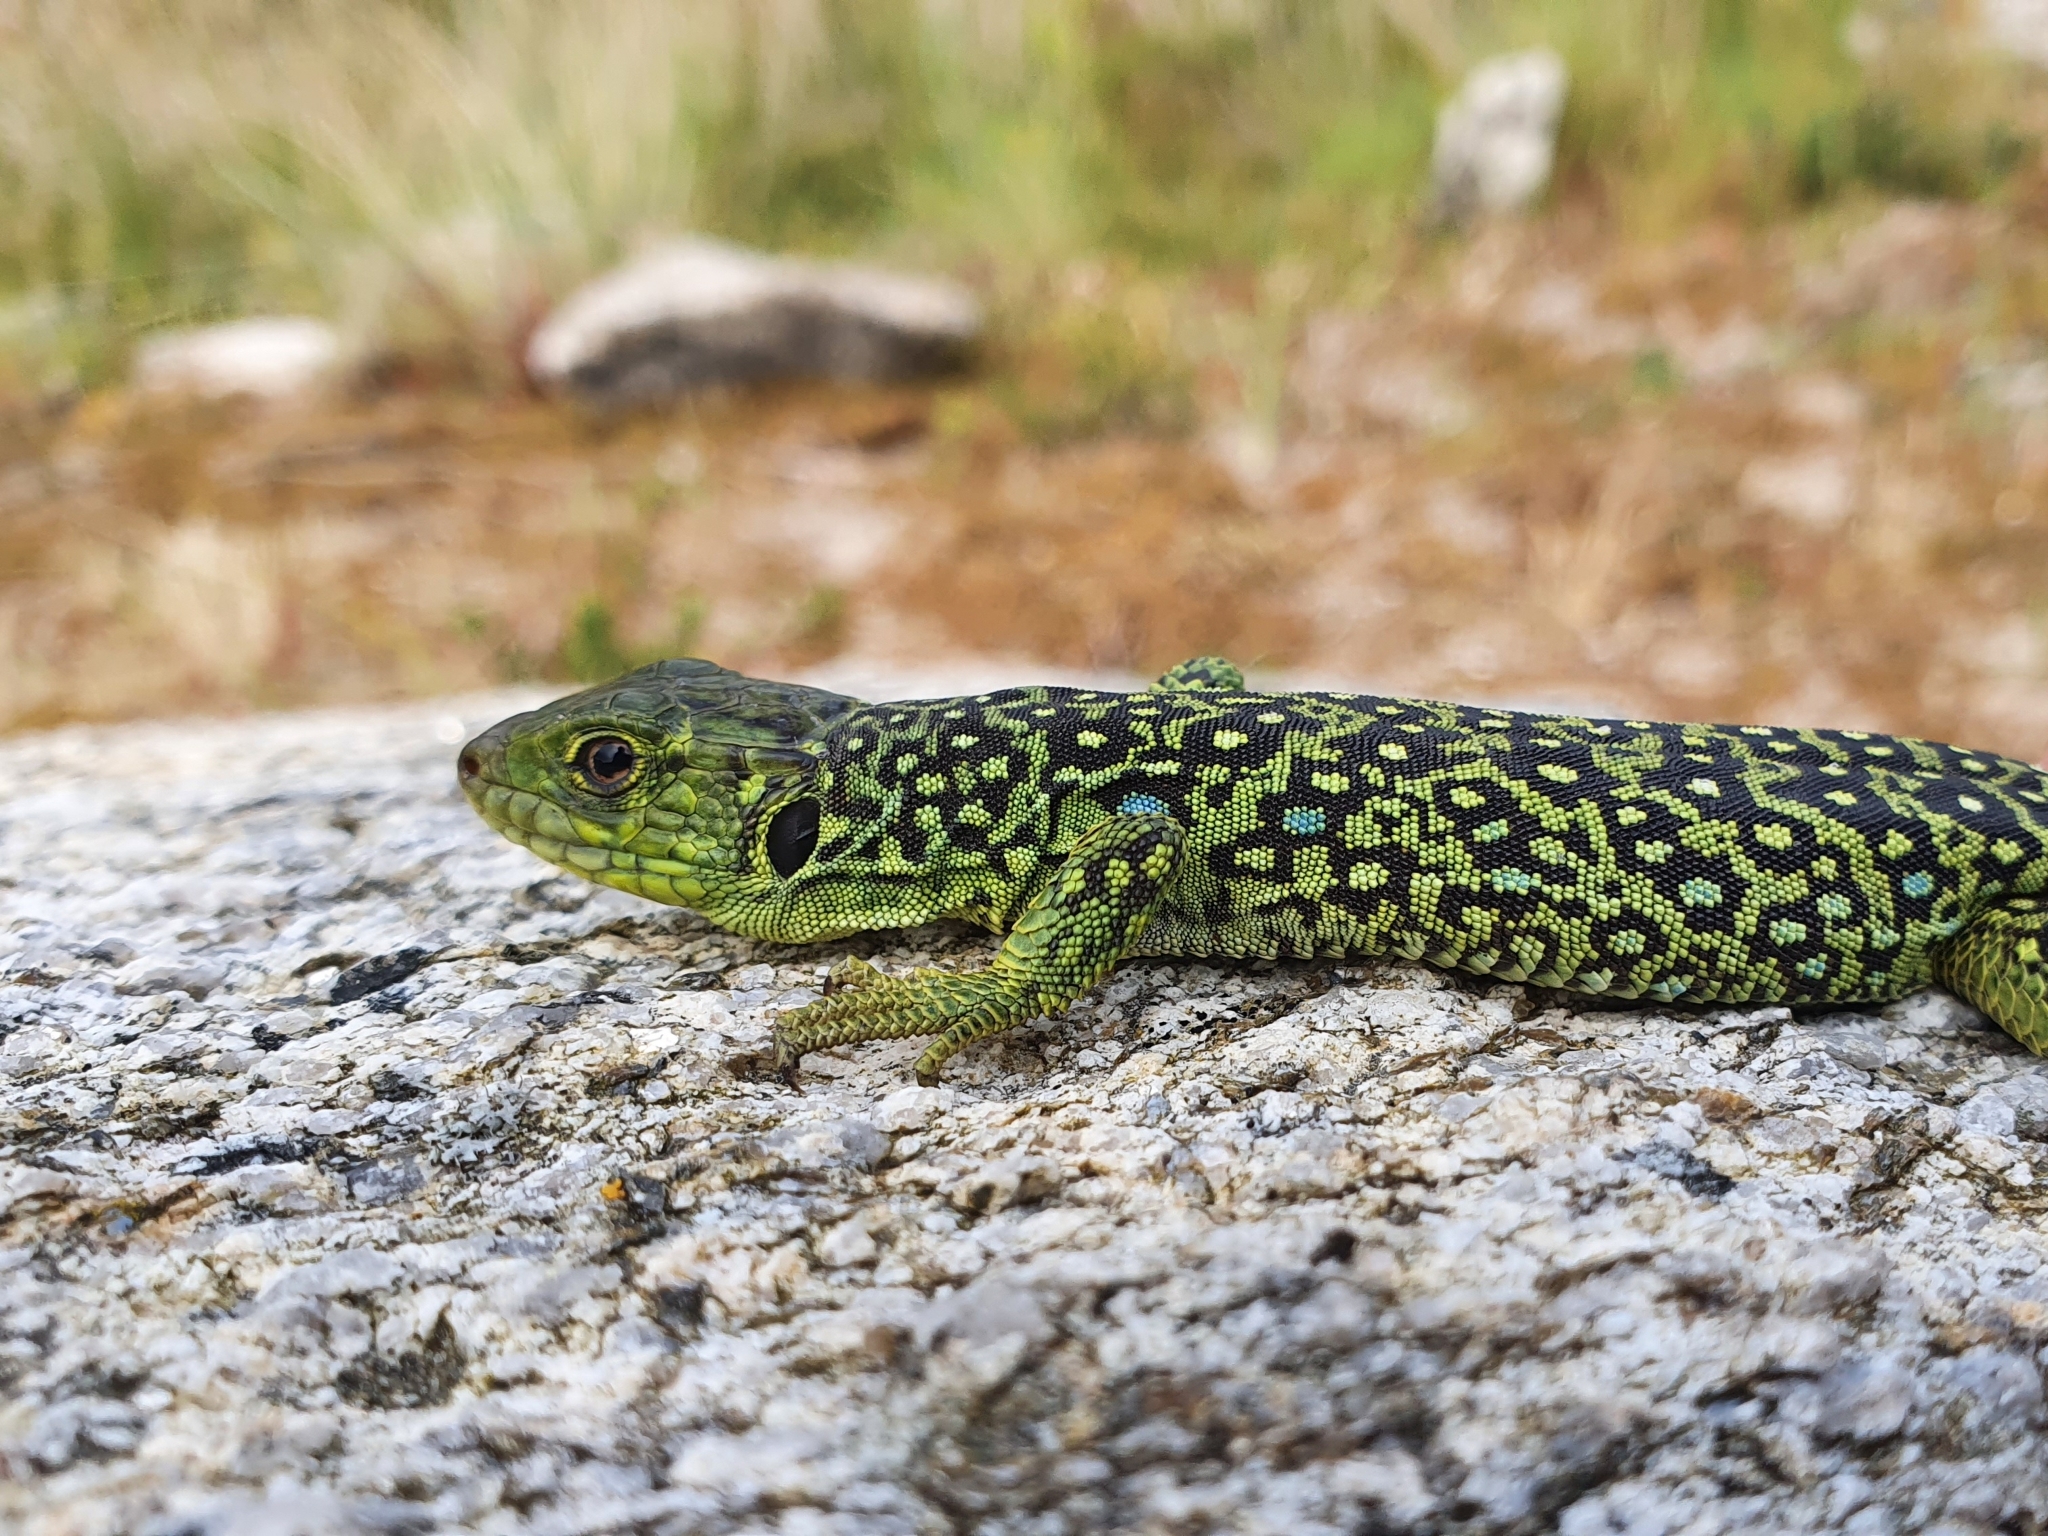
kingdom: Animalia
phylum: Chordata
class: Squamata
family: Lacertidae
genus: Timon
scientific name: Timon lepidus
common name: Ocellated lizard
